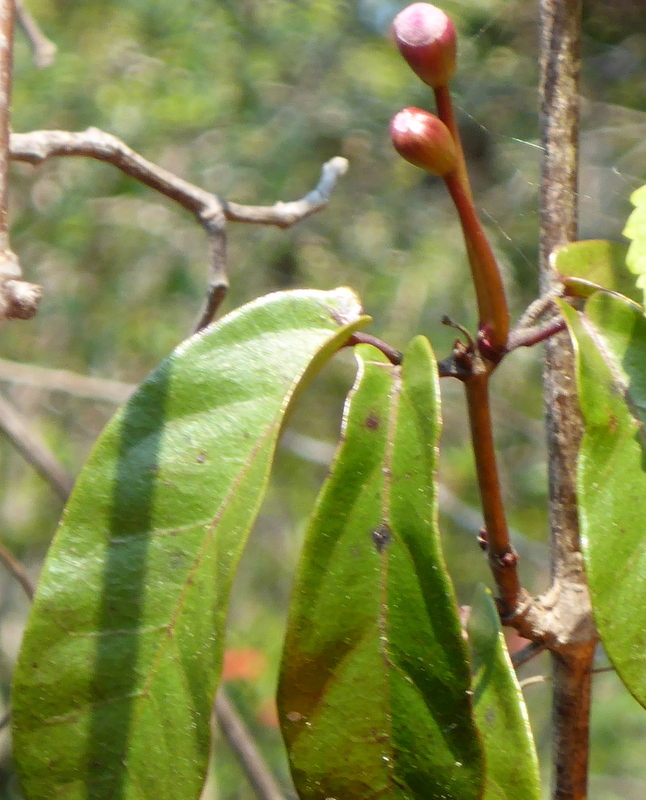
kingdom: Plantae
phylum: Tracheophyta
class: Magnoliopsida
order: Lamiales
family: Bignoniaceae
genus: Bignonia
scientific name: Bignonia capreolata
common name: Crossvine
